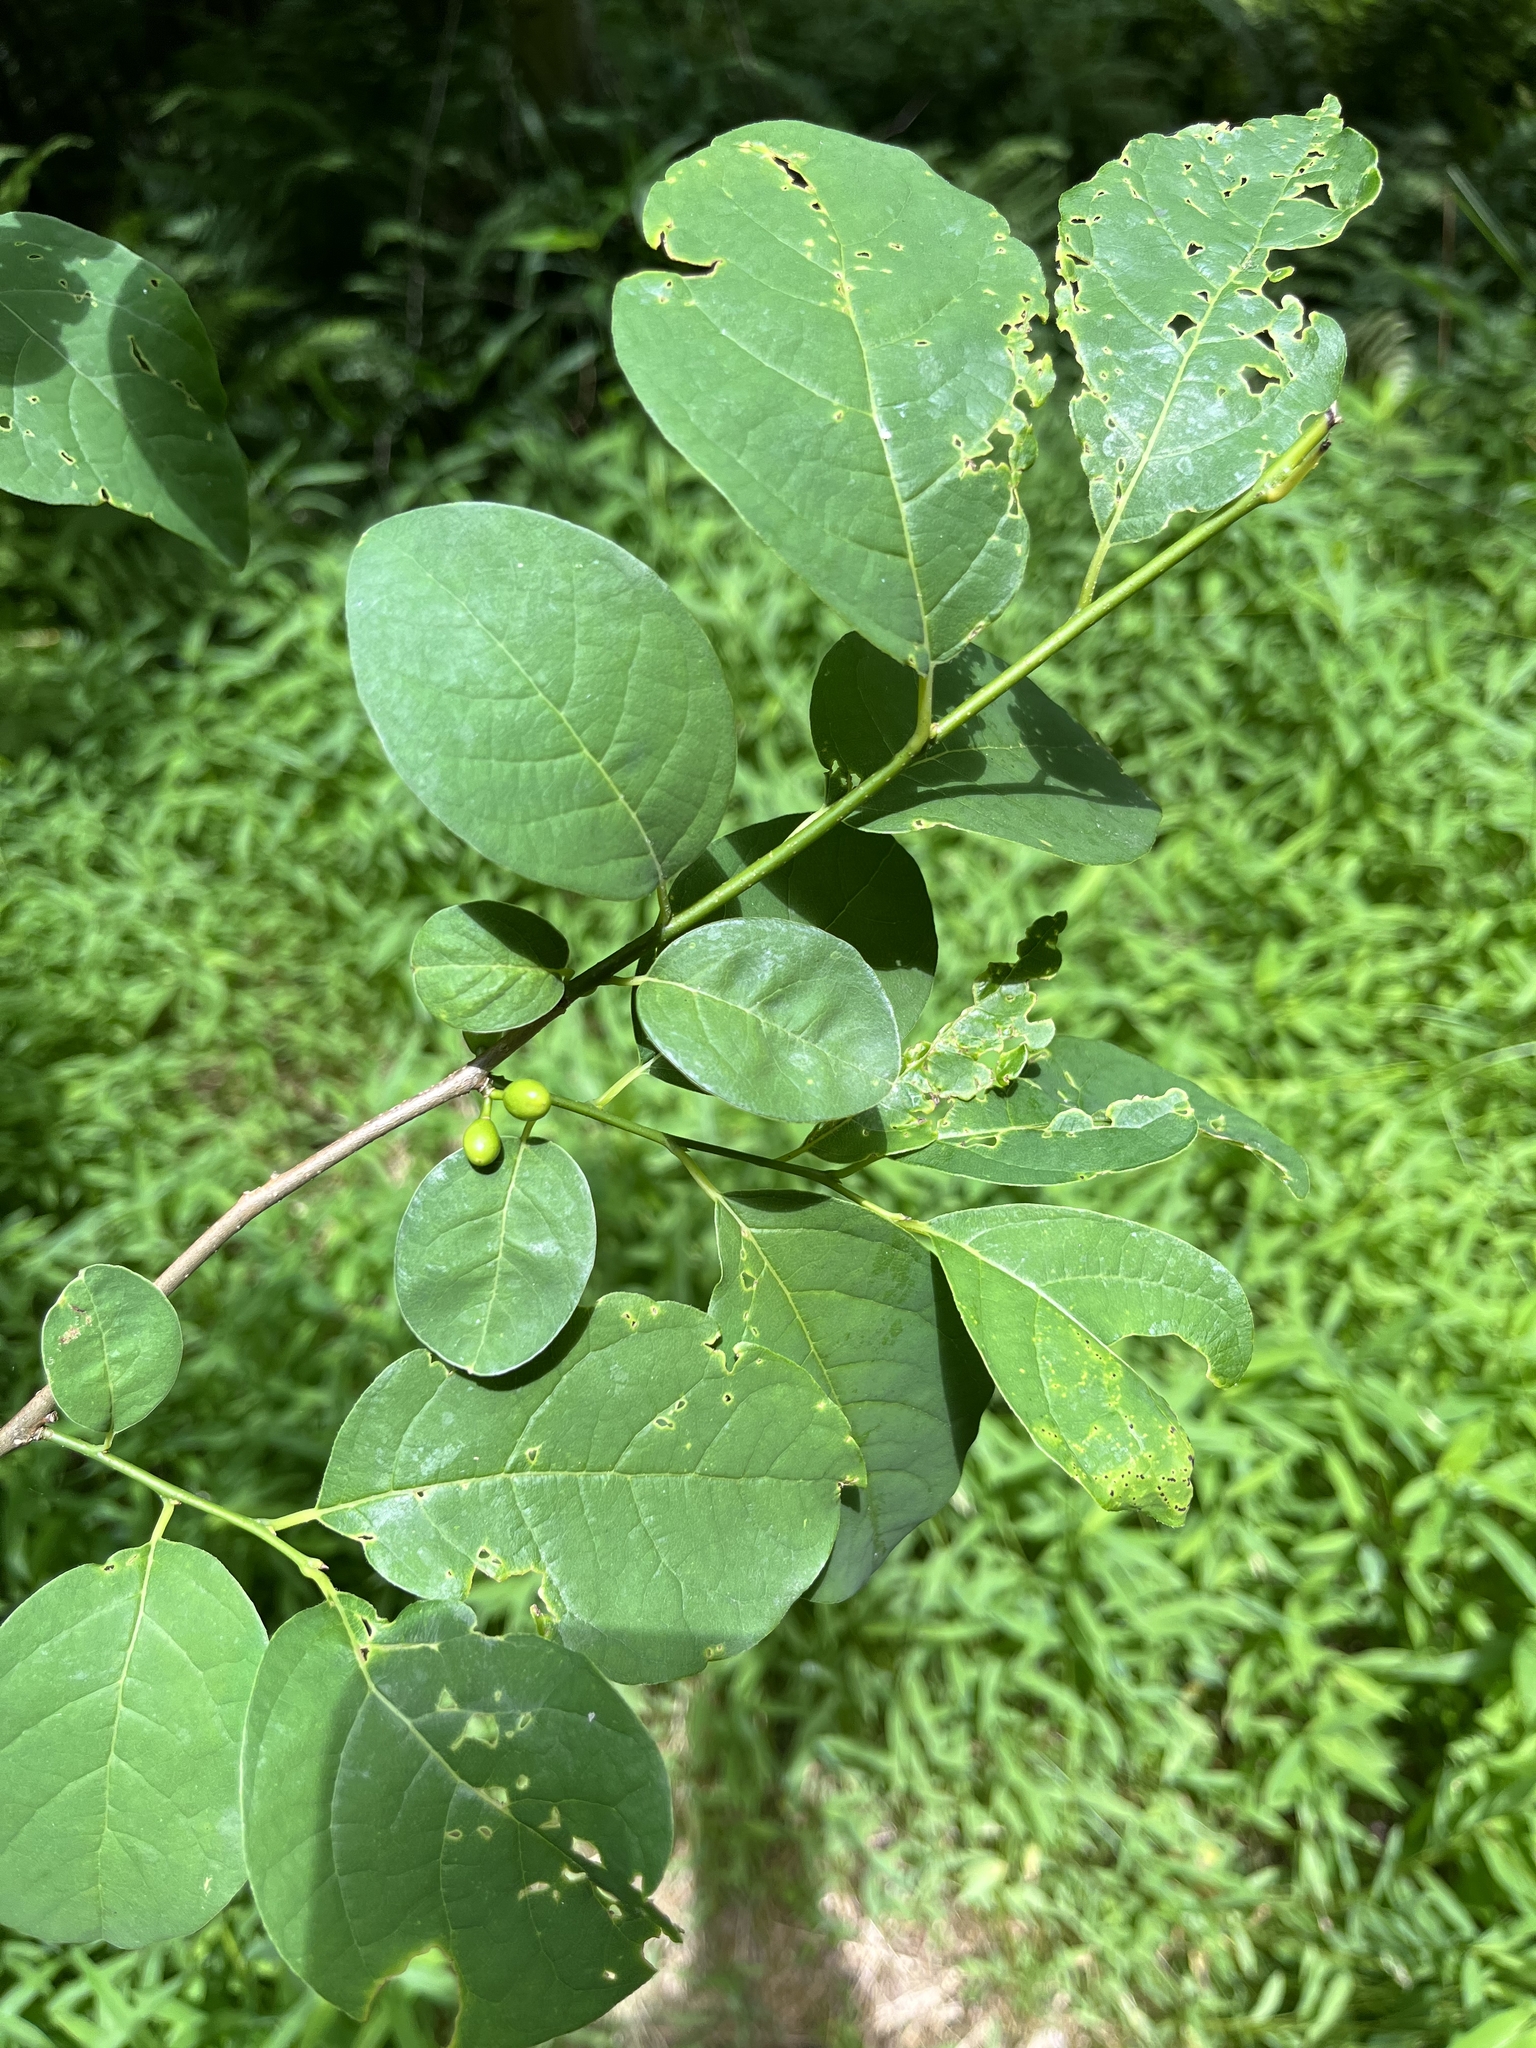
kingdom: Plantae
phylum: Tracheophyta
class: Magnoliopsida
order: Laurales
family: Lauraceae
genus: Lindera
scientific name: Lindera benzoin
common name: Spicebush
